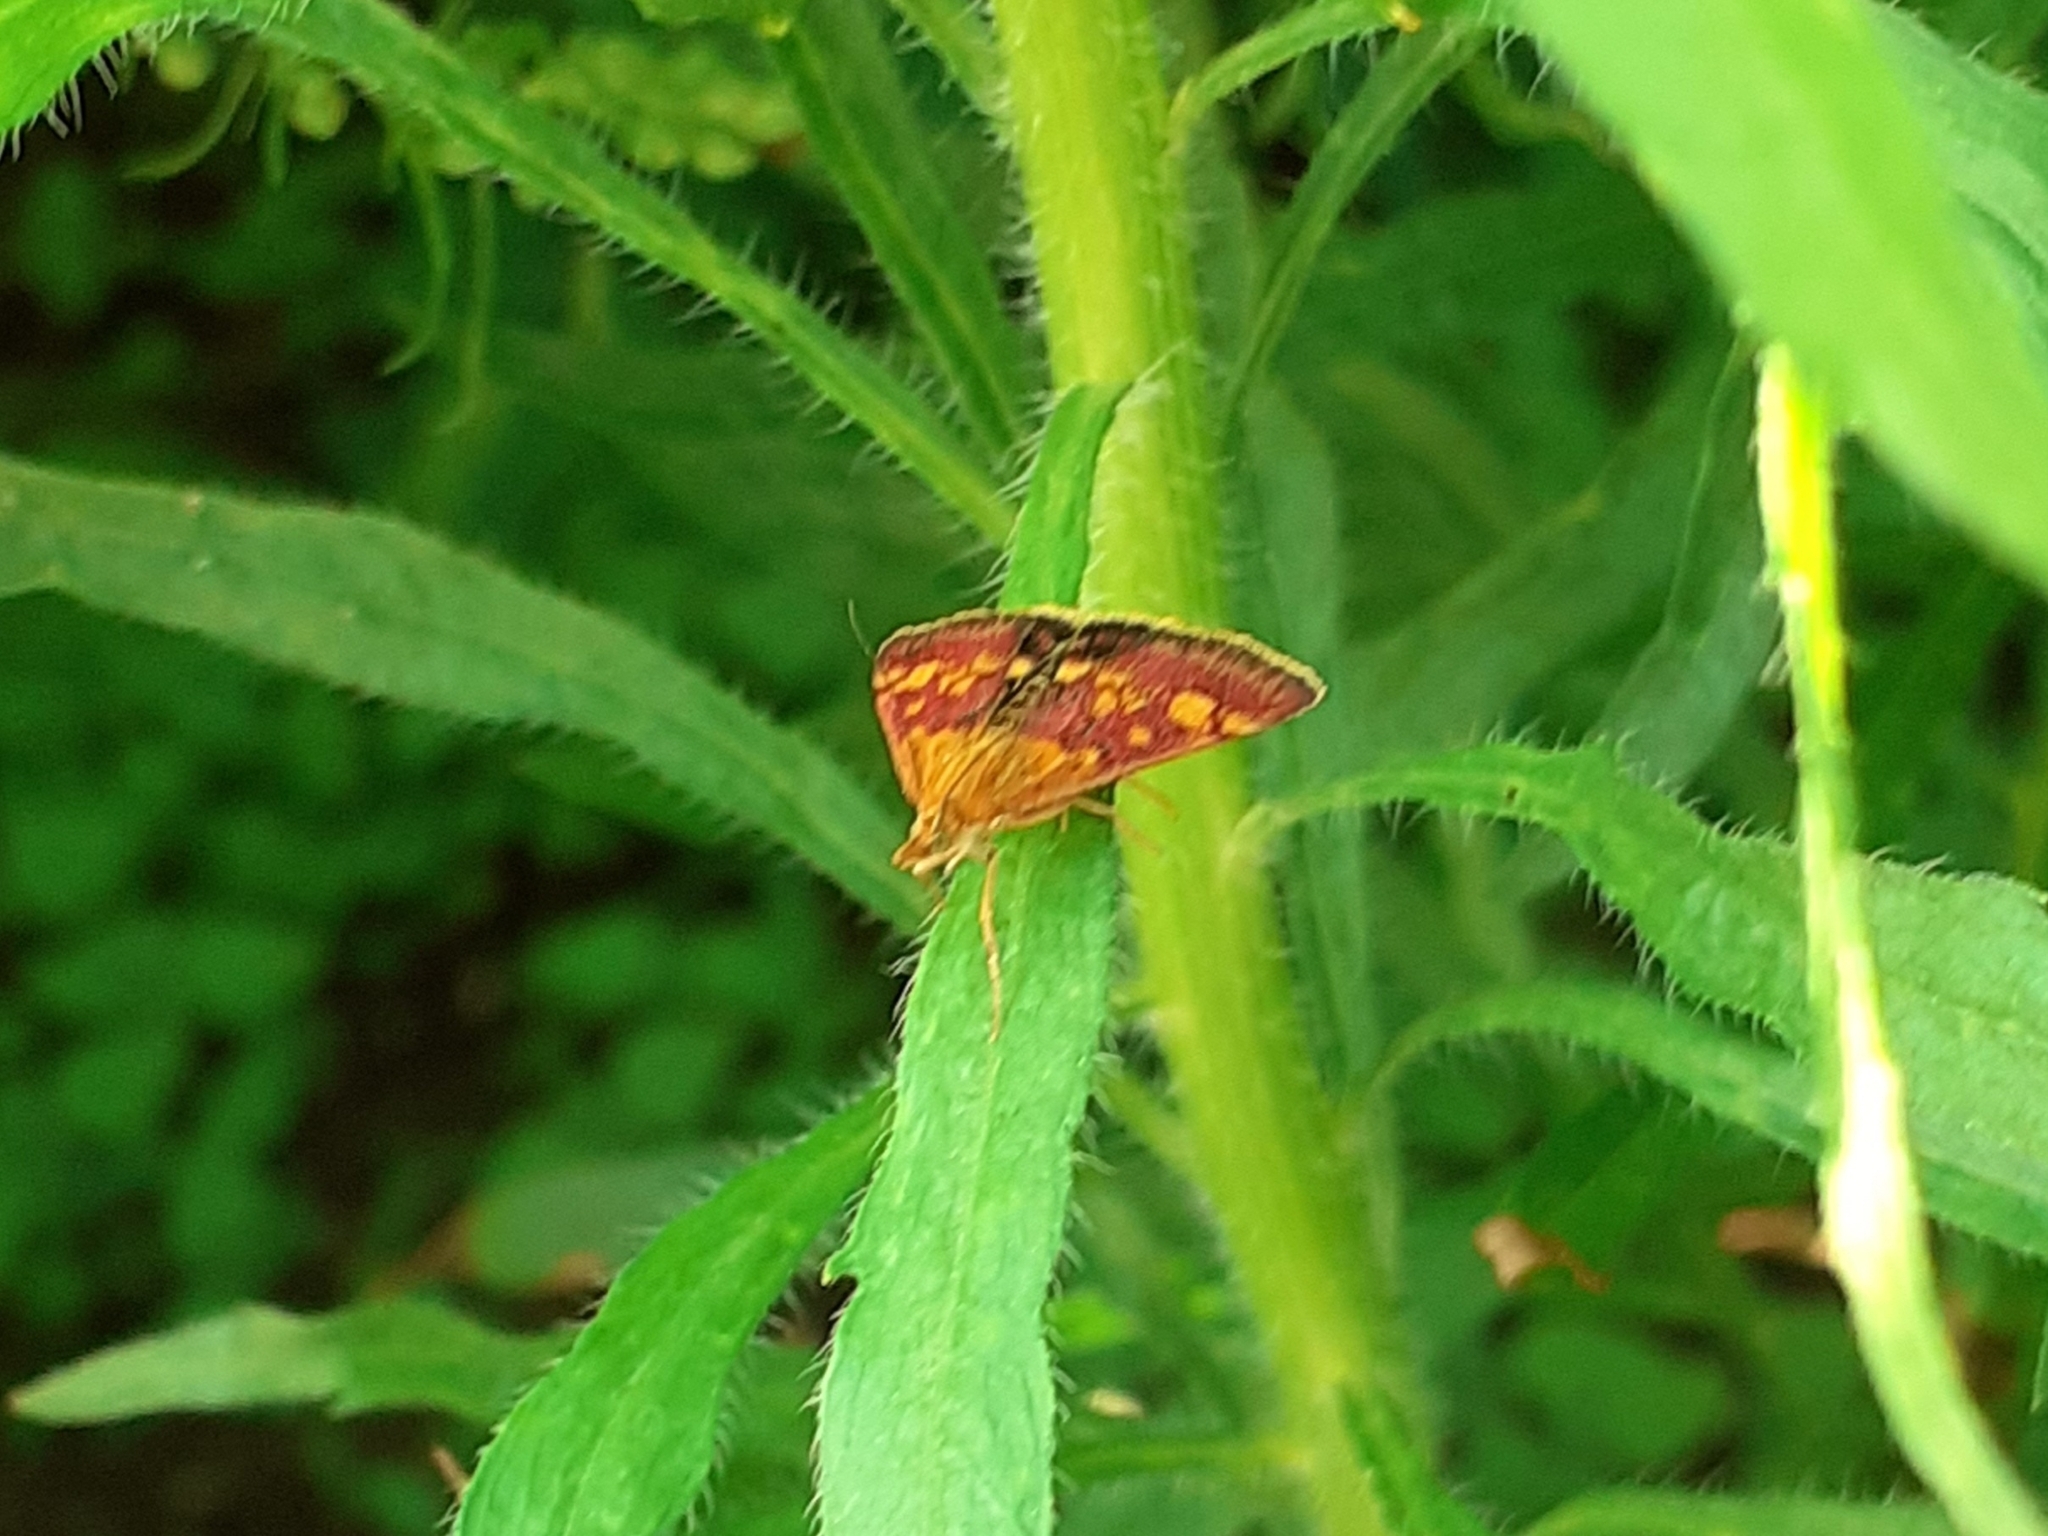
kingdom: Animalia
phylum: Arthropoda
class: Insecta
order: Lepidoptera
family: Crambidae
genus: Pyrausta
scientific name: Pyrausta aurata
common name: Small purple & gold
